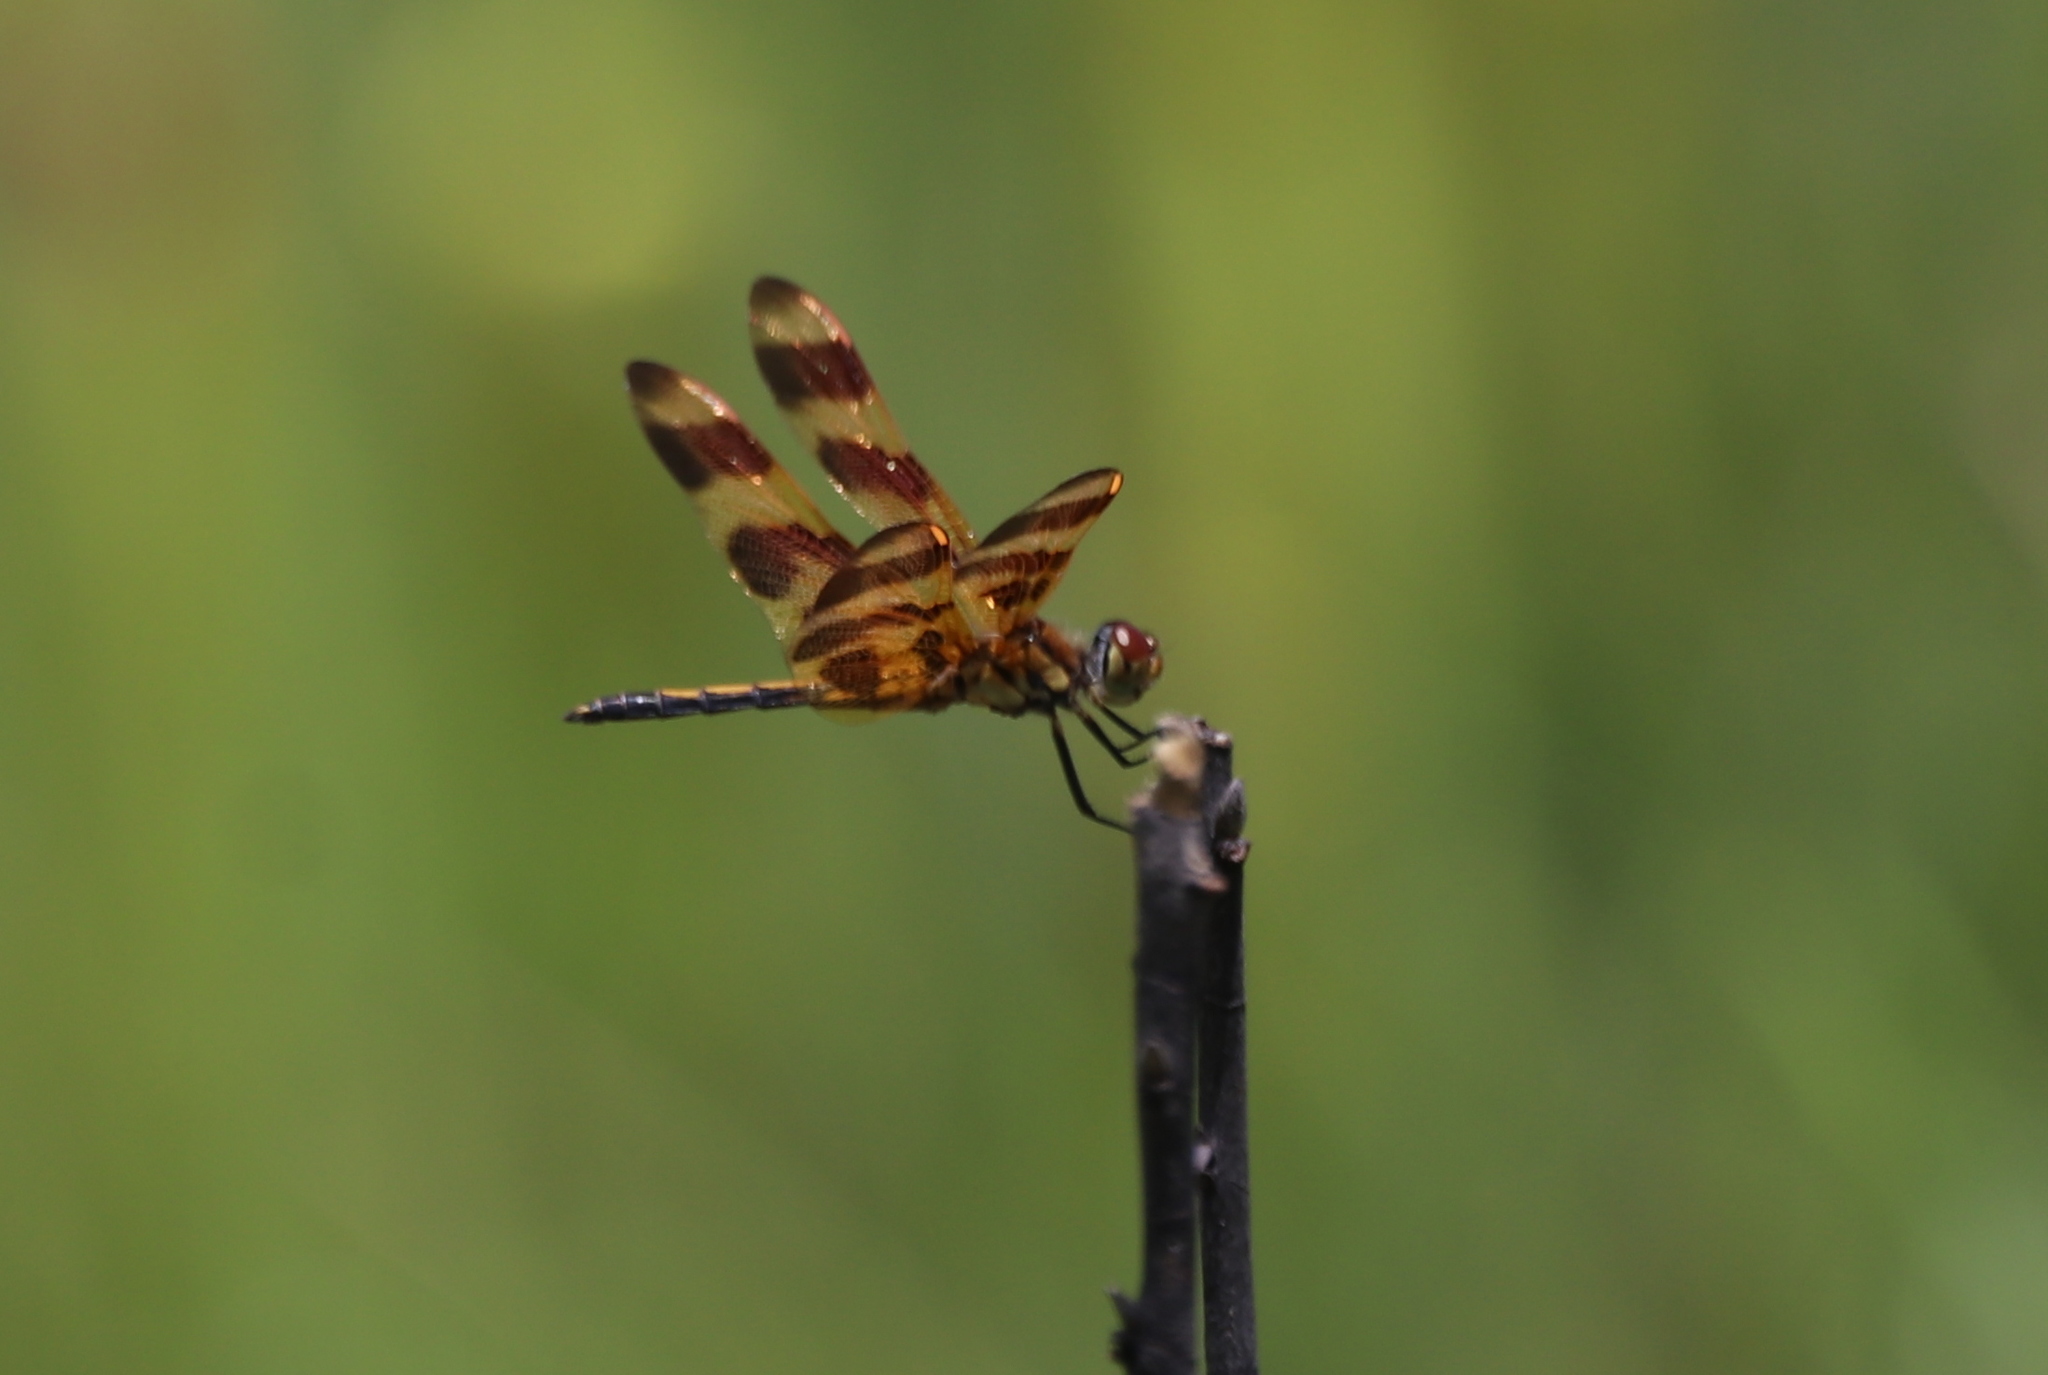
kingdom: Animalia
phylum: Arthropoda
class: Insecta
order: Odonata
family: Libellulidae
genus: Celithemis
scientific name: Celithemis eponina
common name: Halloween pennant
